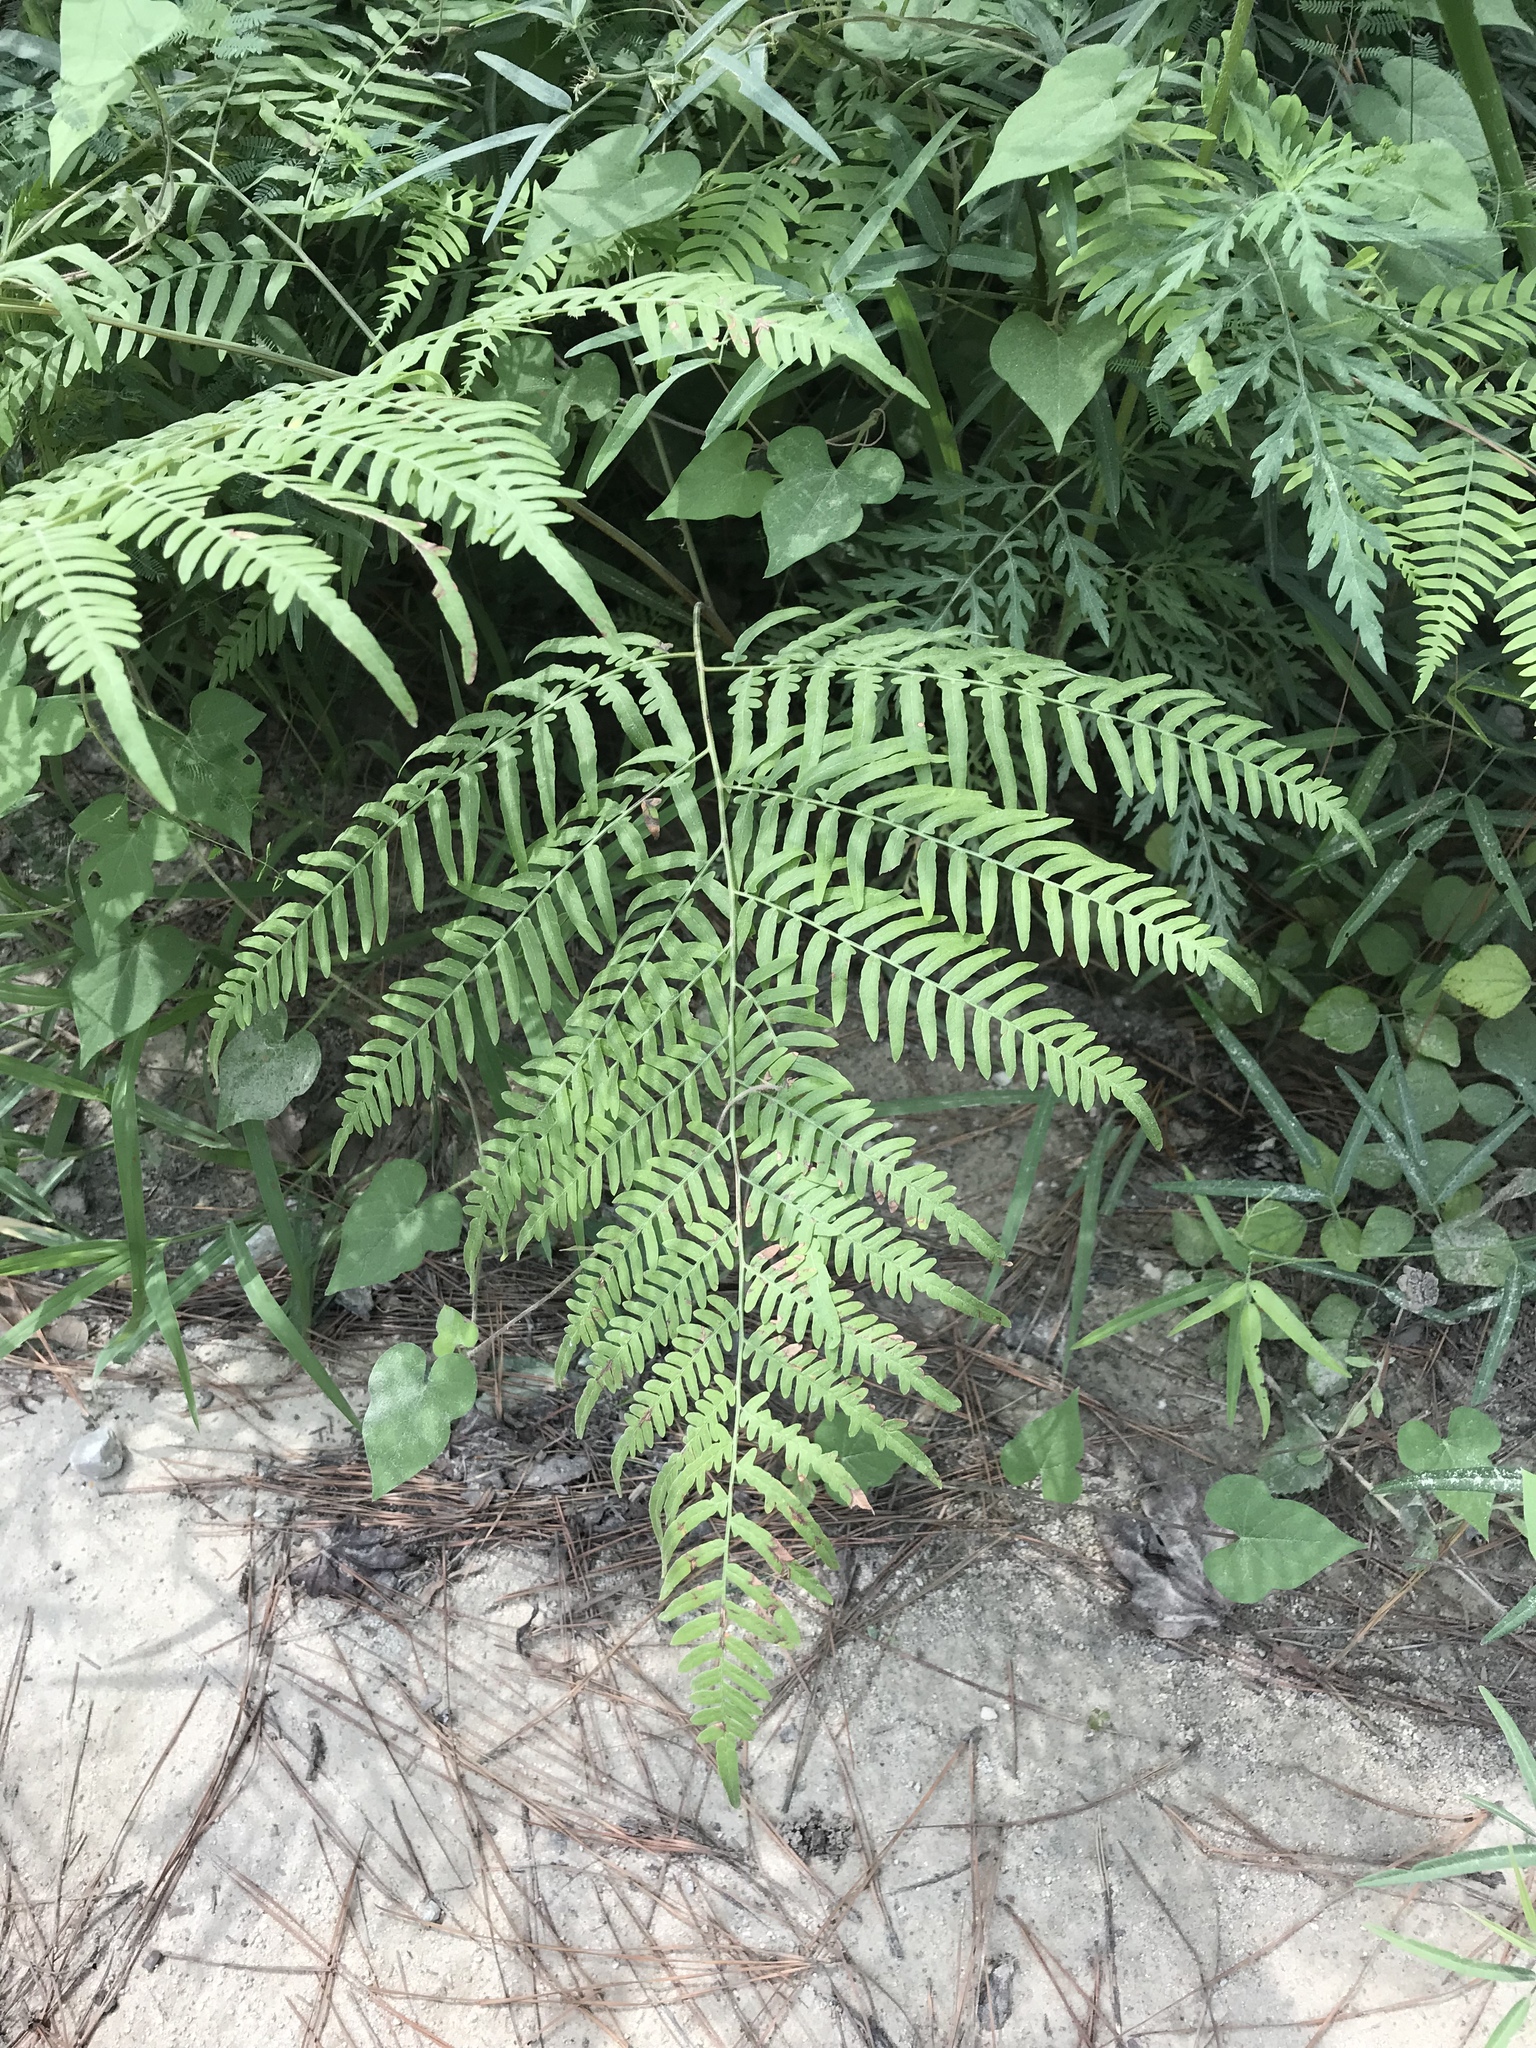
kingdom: Plantae
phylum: Tracheophyta
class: Polypodiopsida
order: Polypodiales
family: Dennstaedtiaceae
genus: Pteridium
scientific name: Pteridium aquilinum
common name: Bracken
